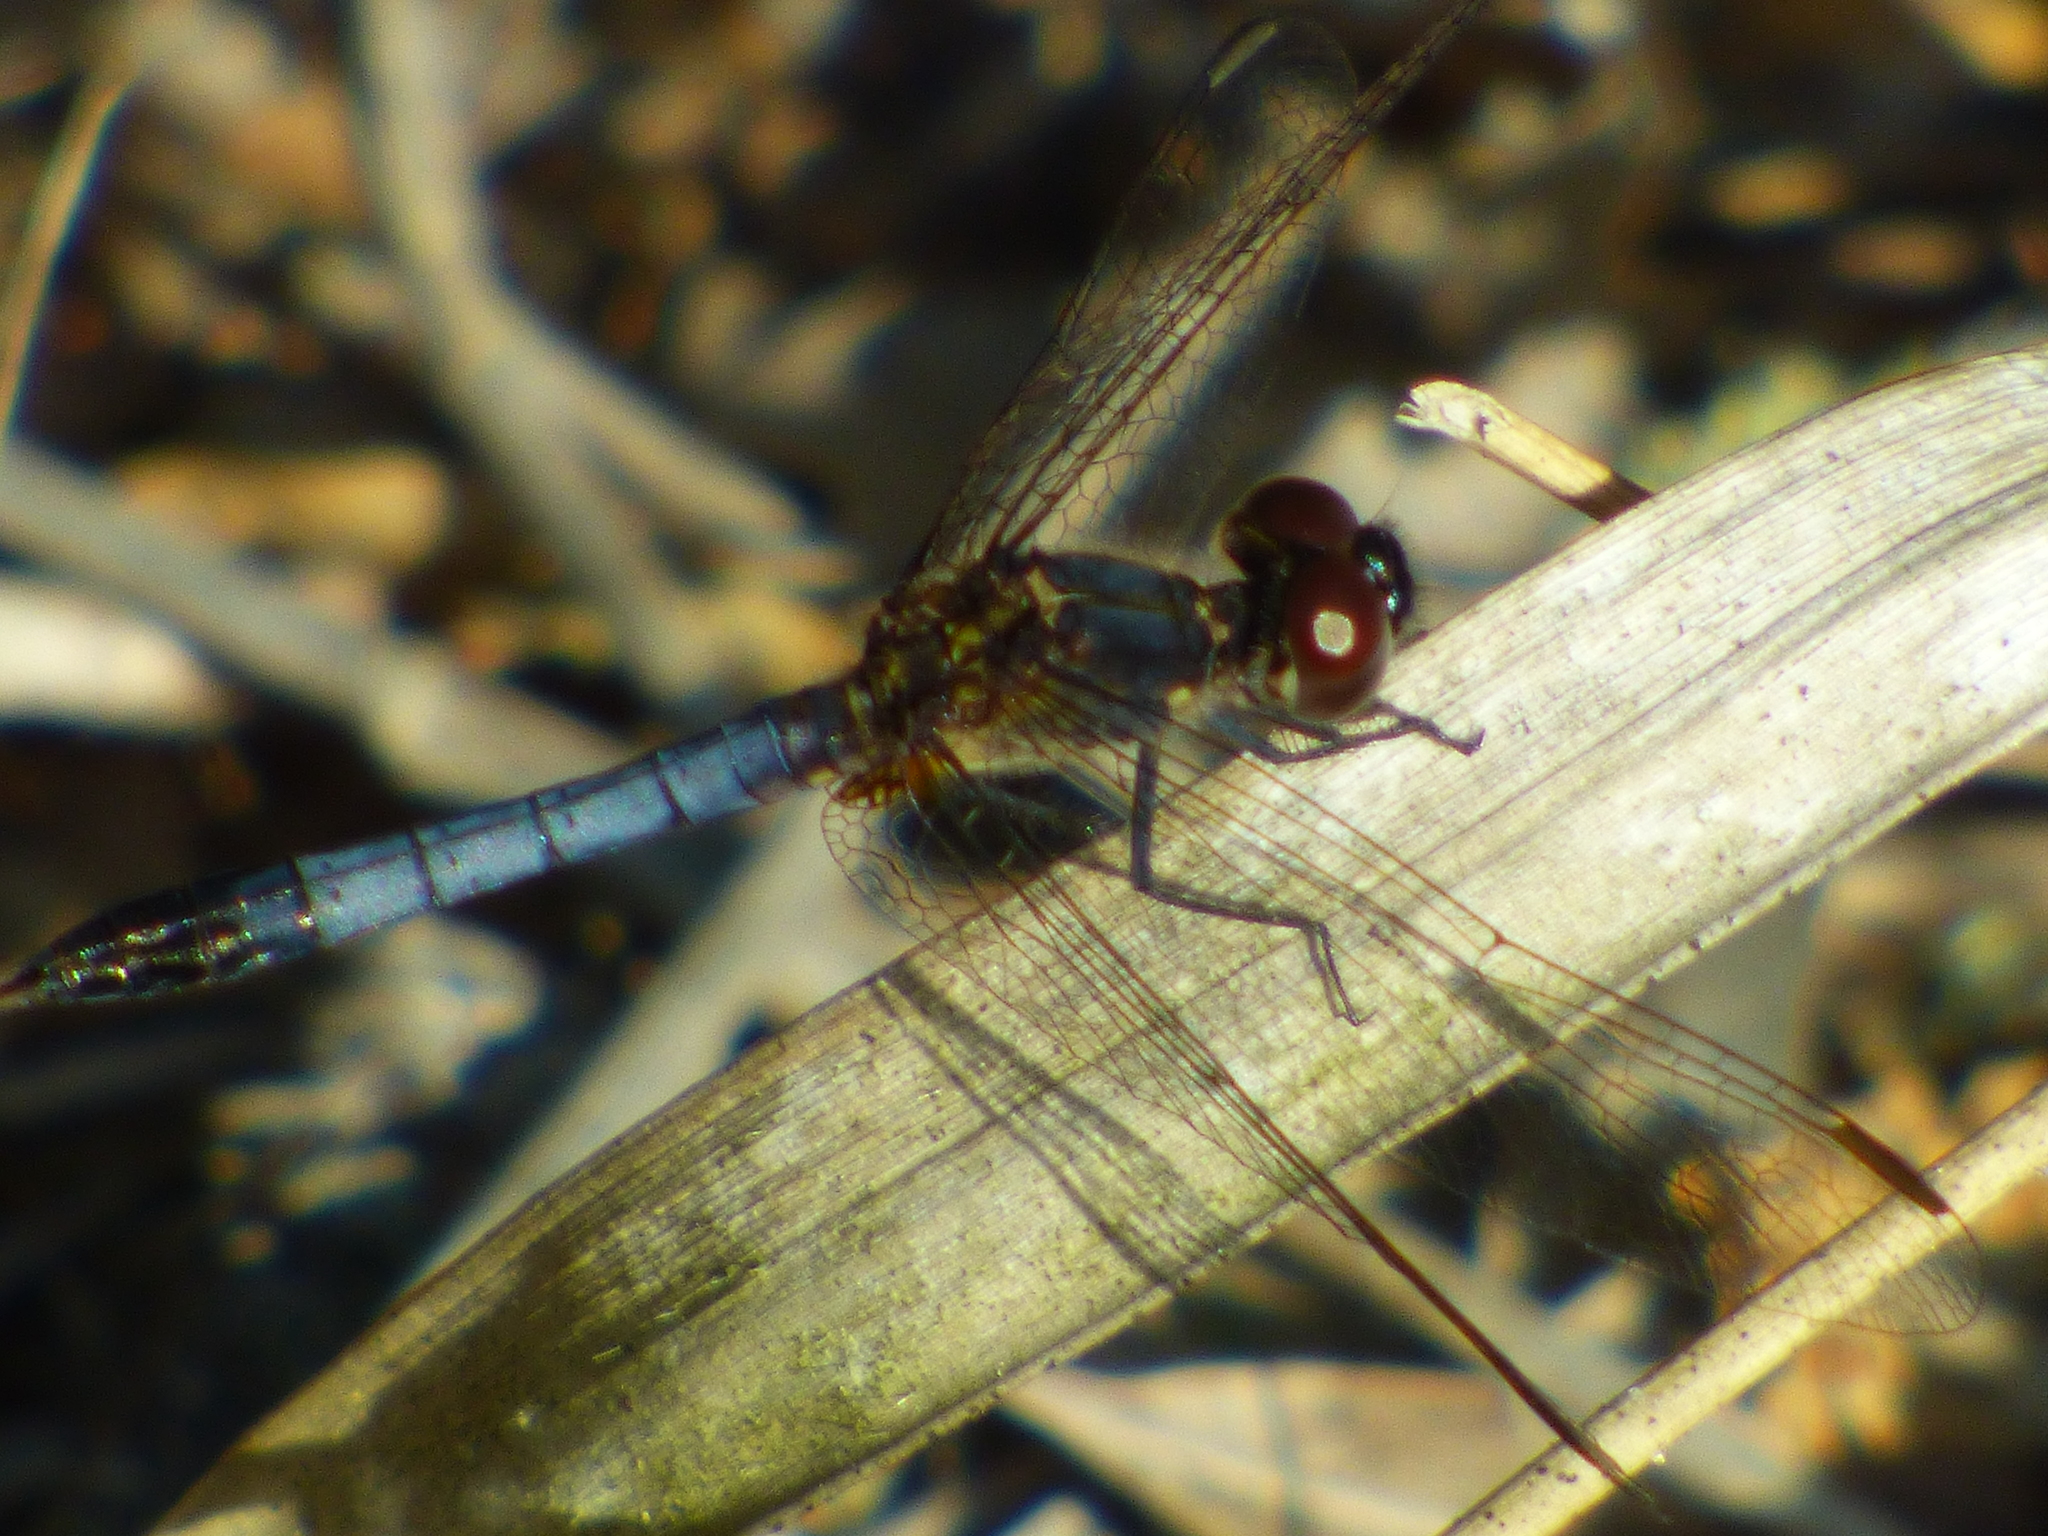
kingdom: Animalia
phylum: Arthropoda
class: Insecta
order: Odonata
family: Libellulidae
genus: Erythrodiplax
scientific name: Erythrodiplax minuscula
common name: Little blue dragonlet
